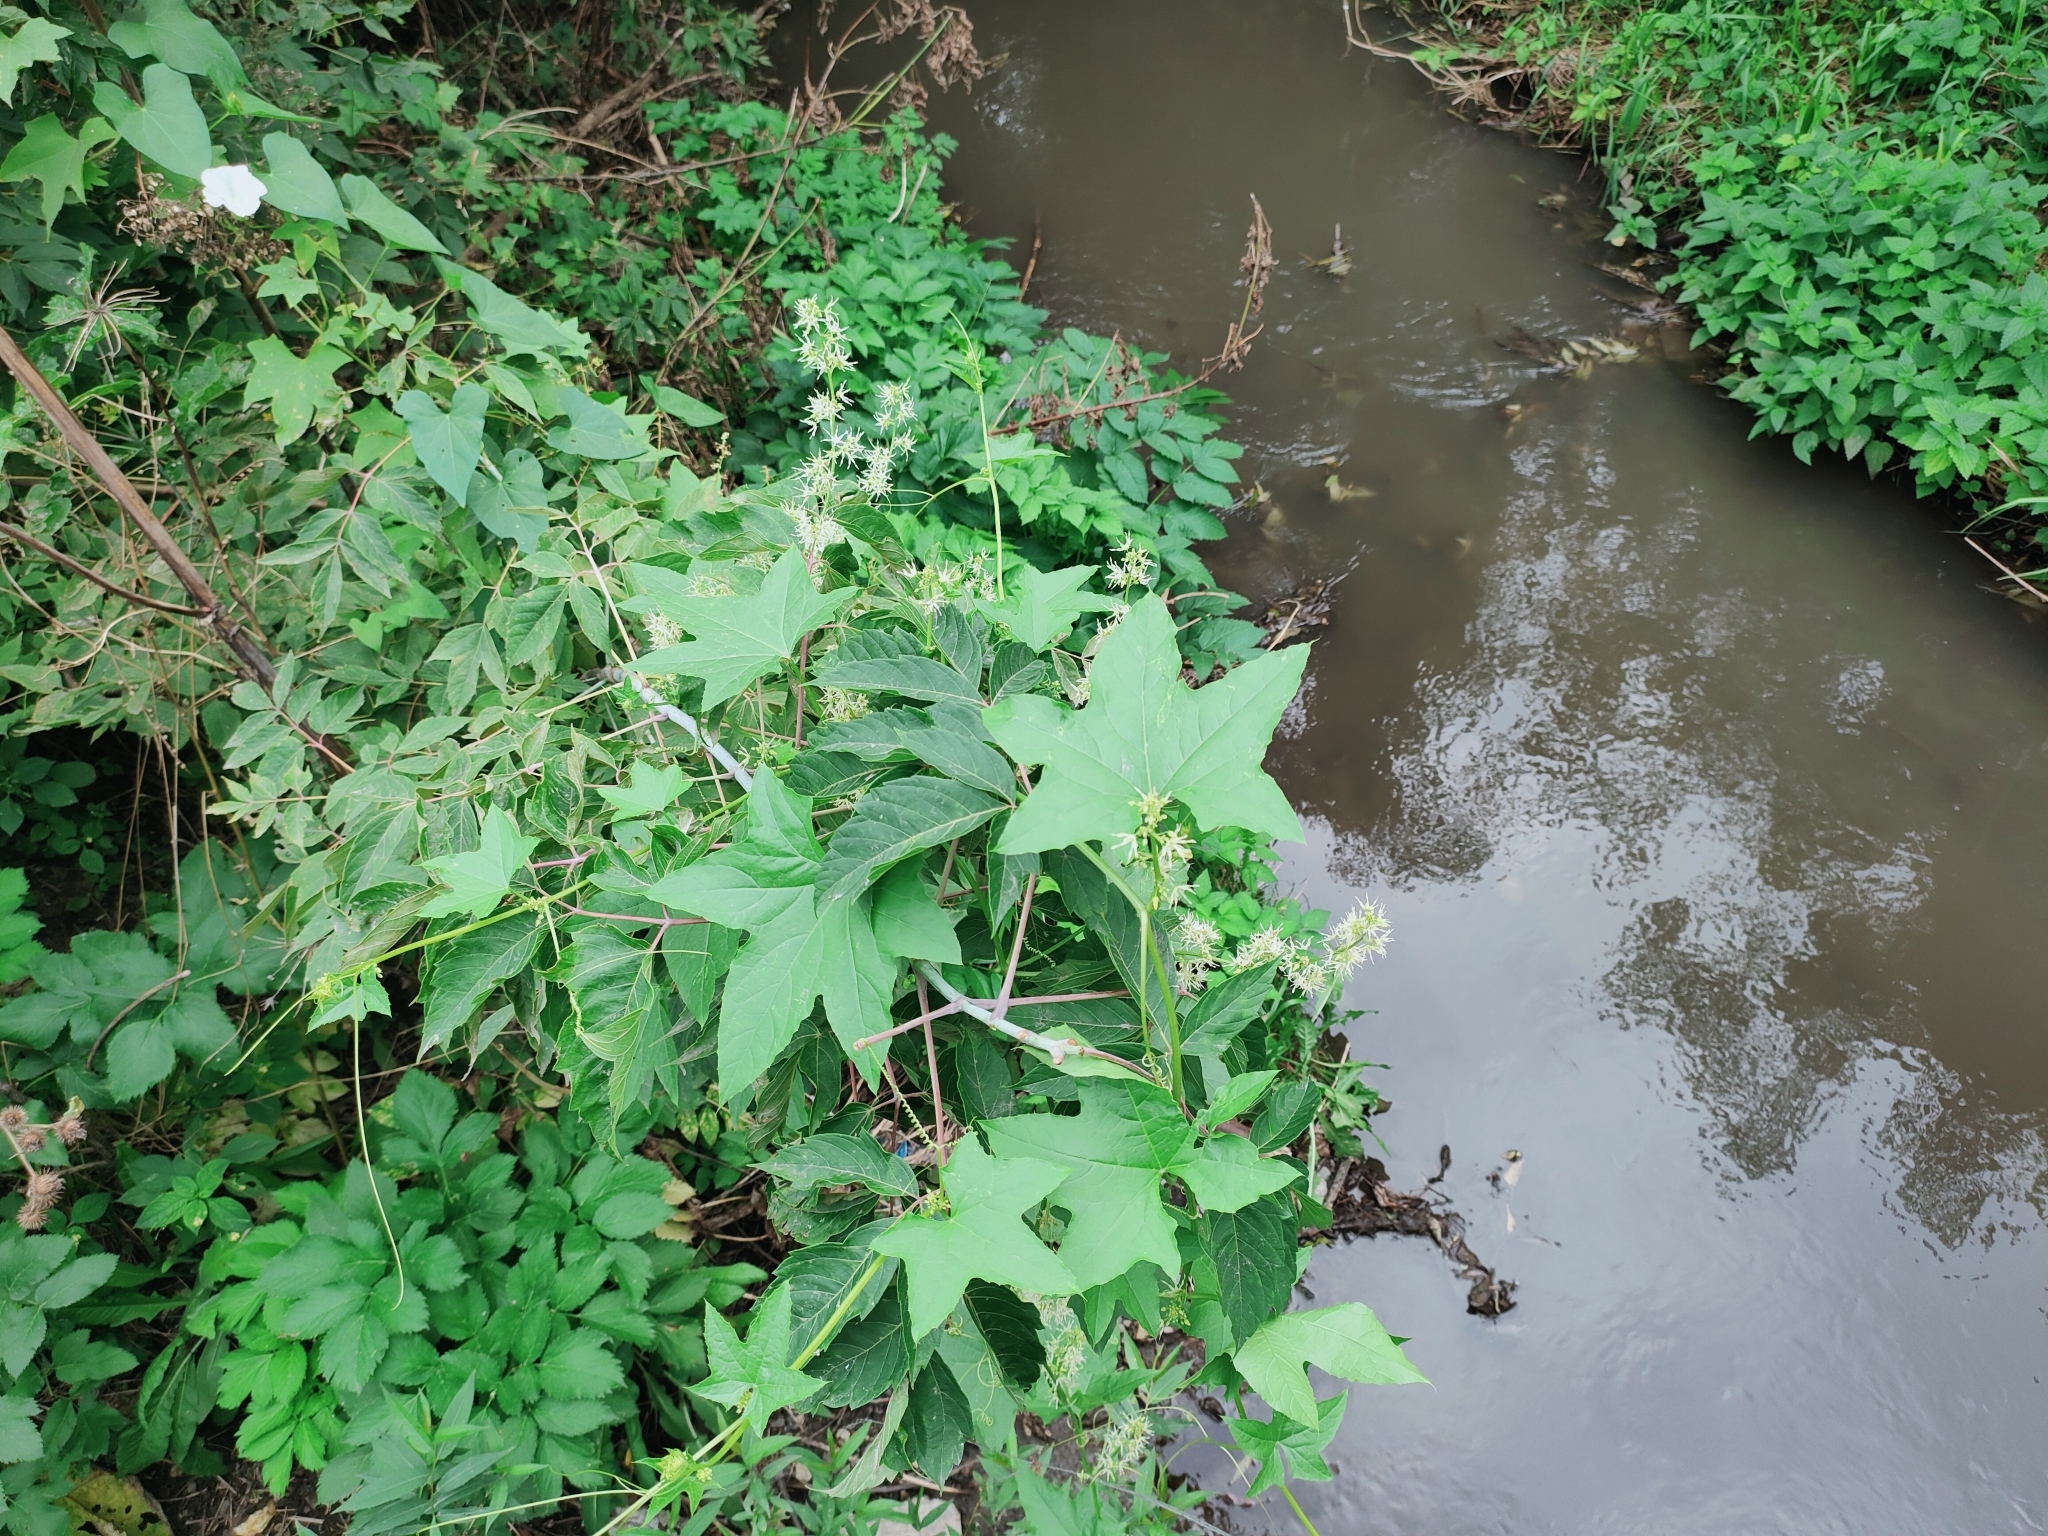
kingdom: Plantae
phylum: Tracheophyta
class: Magnoliopsida
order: Cucurbitales
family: Cucurbitaceae
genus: Echinocystis
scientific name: Echinocystis lobata
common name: Wild cucumber
